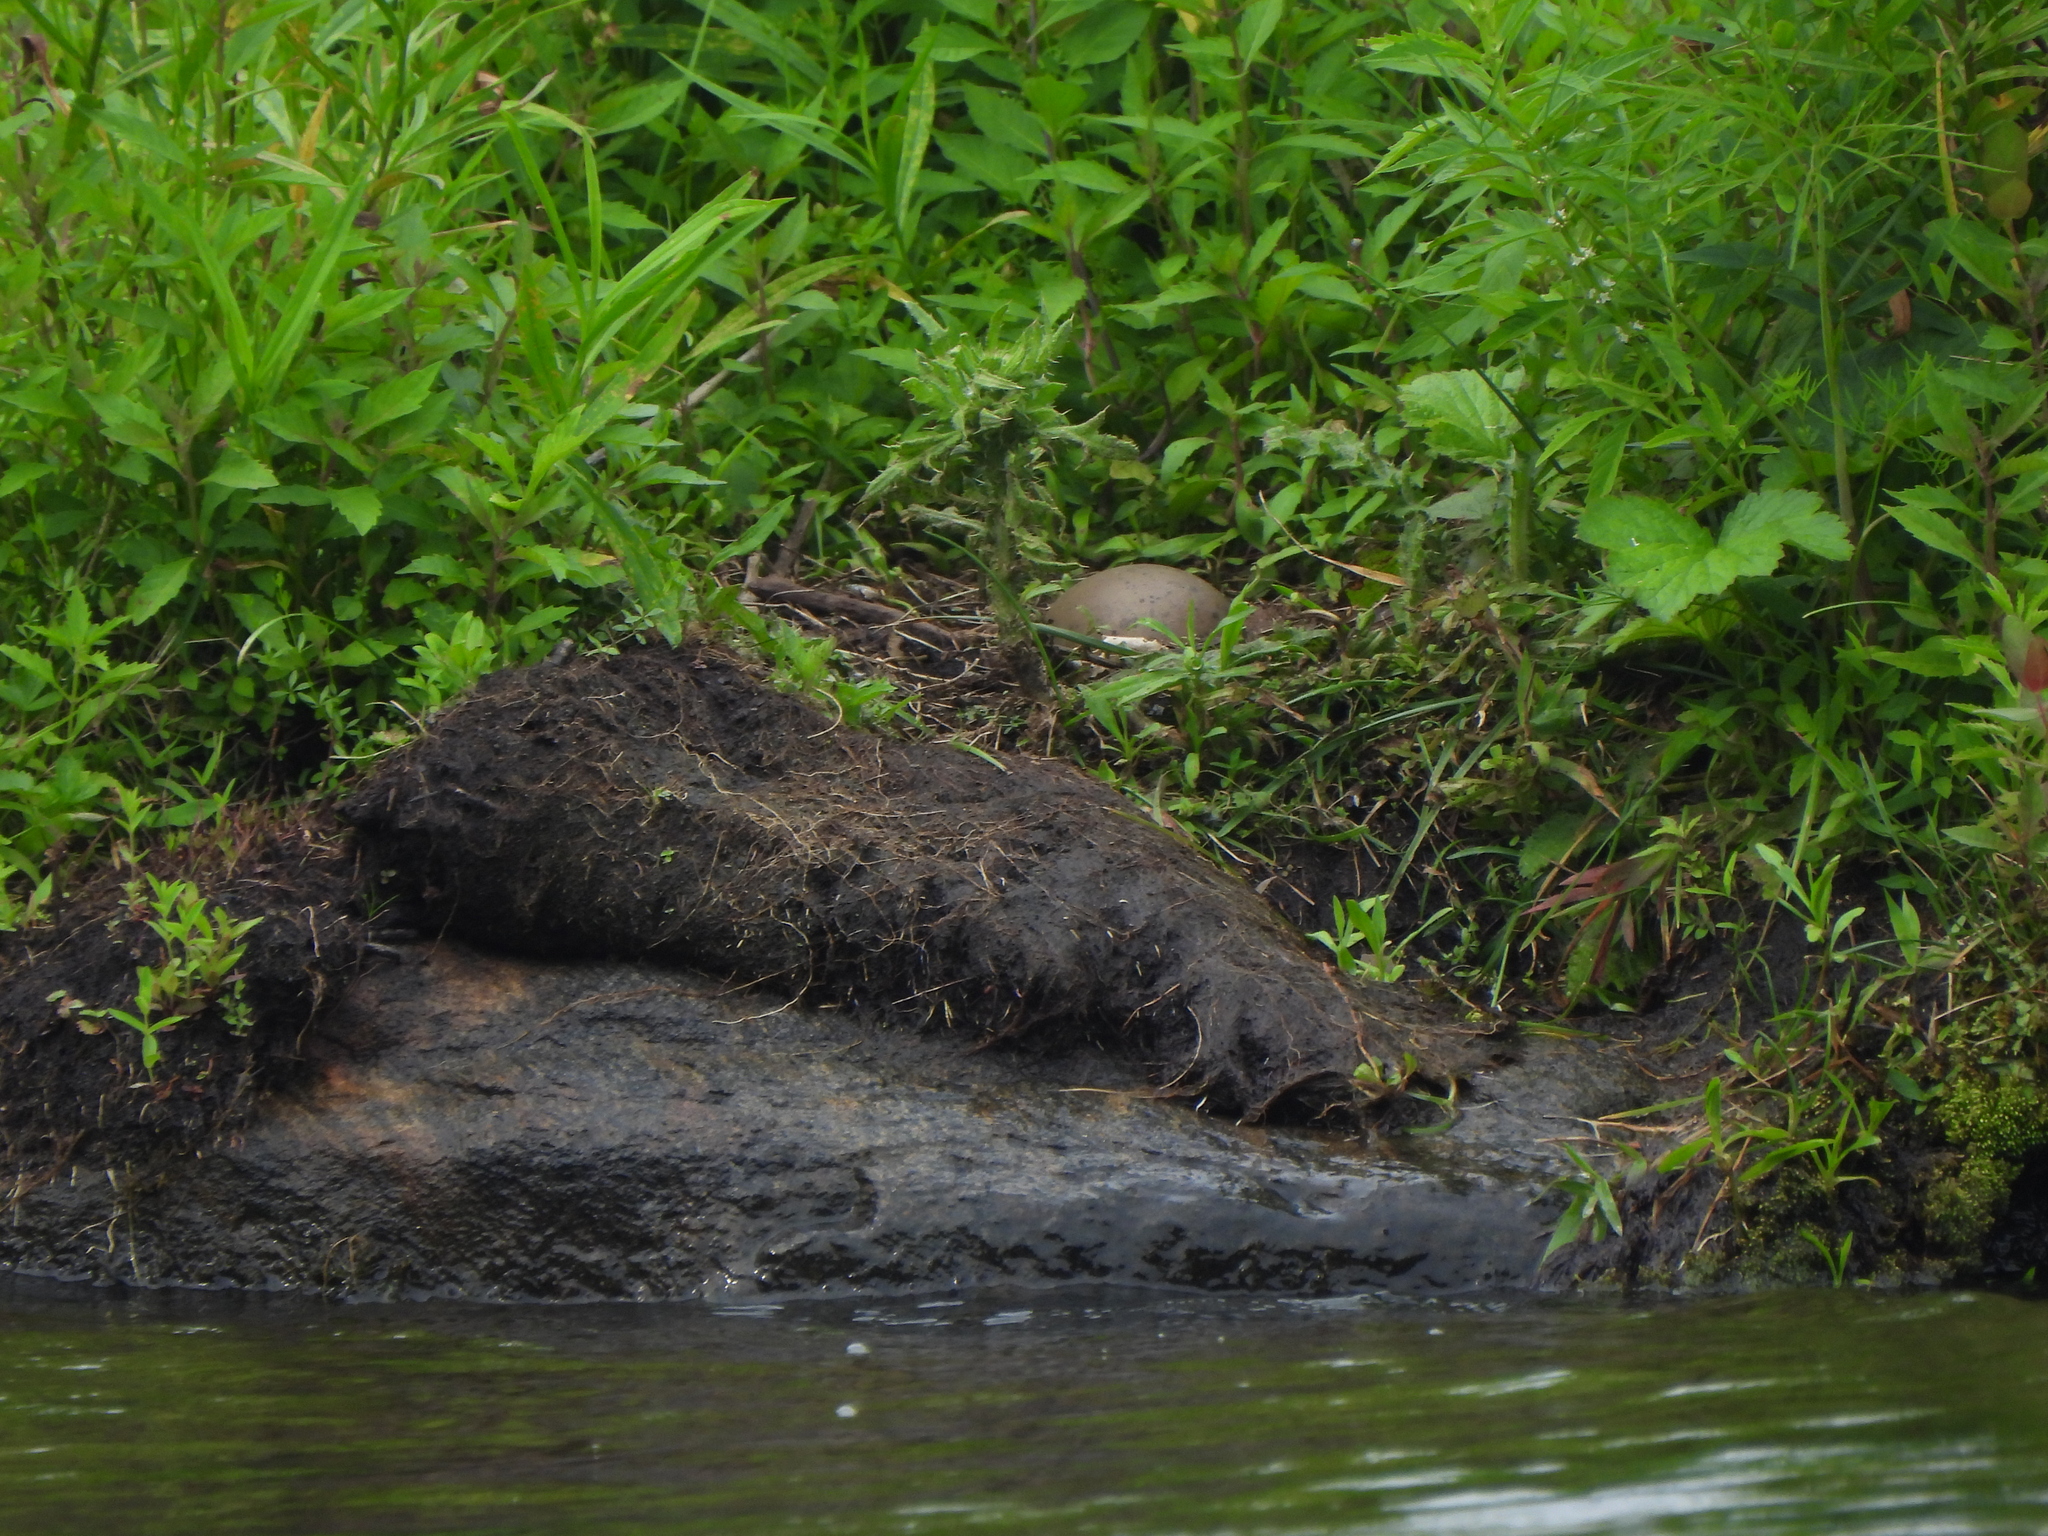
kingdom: Animalia
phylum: Chordata
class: Aves
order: Gaviiformes
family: Gaviidae
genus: Gavia
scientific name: Gavia immer
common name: Common loon
